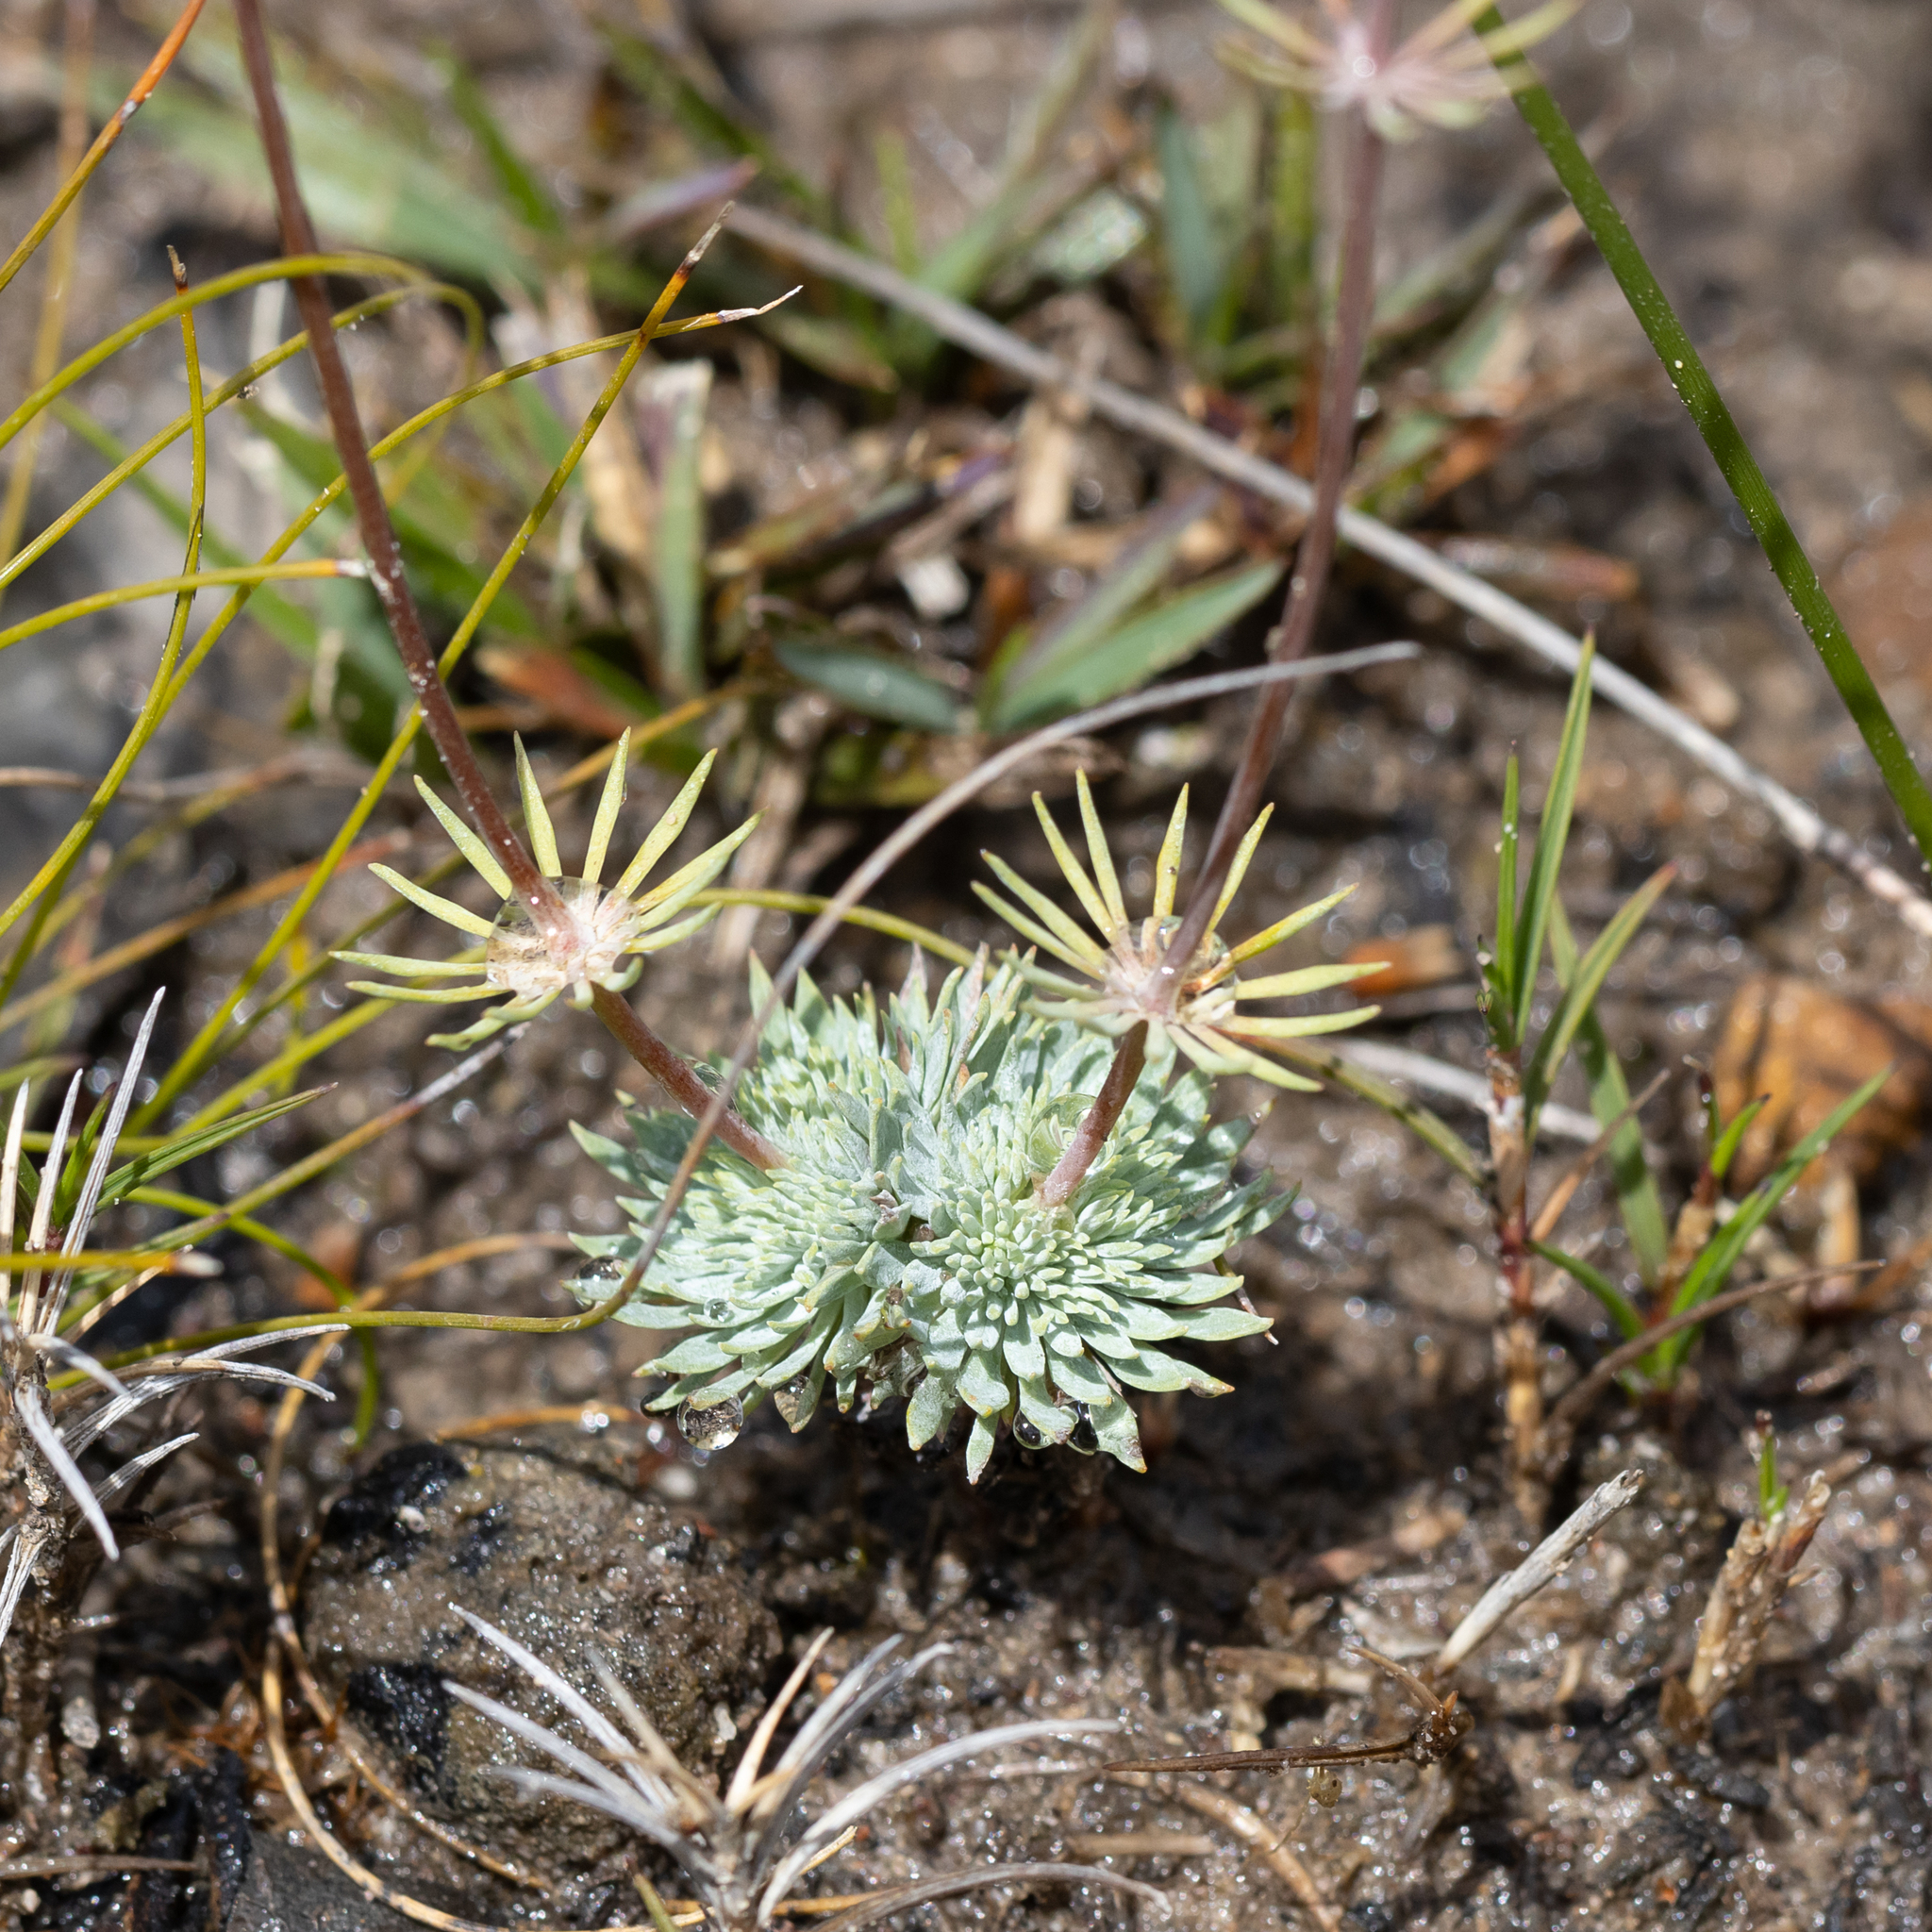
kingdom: Plantae
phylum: Tracheophyta
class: Magnoliopsida
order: Asterales
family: Stylidiaceae
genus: Stylidium
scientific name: Stylidium tenue
